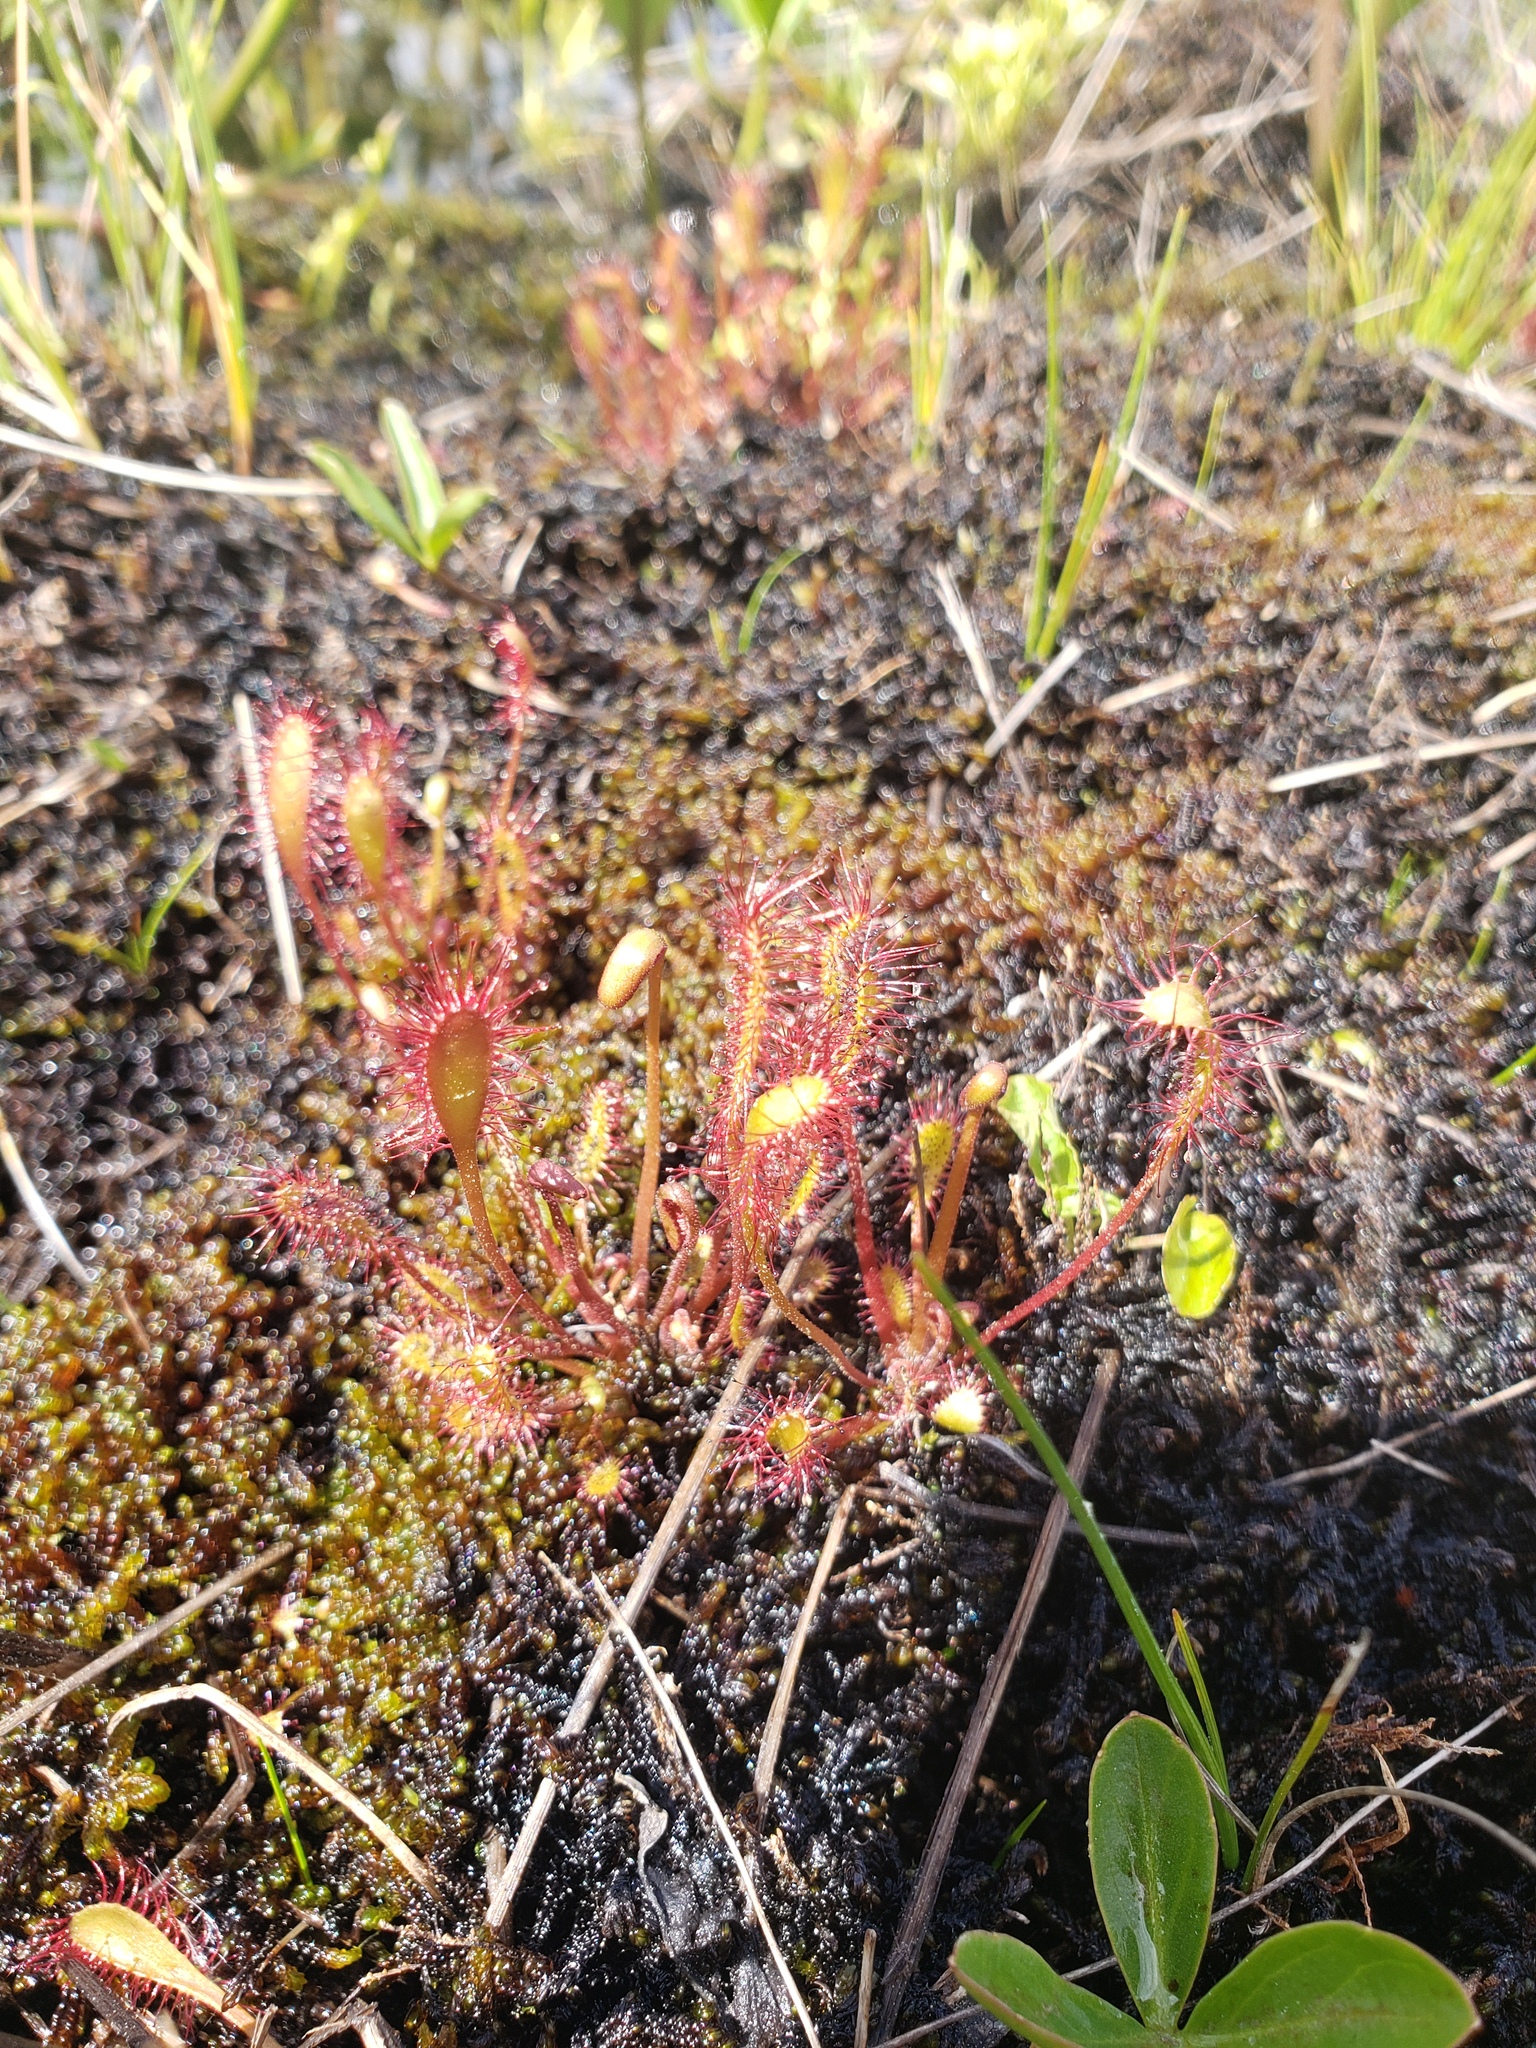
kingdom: Plantae
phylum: Tracheophyta
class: Magnoliopsida
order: Caryophyllales
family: Droseraceae
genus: Drosera
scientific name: Drosera anglica
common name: Great sundew
